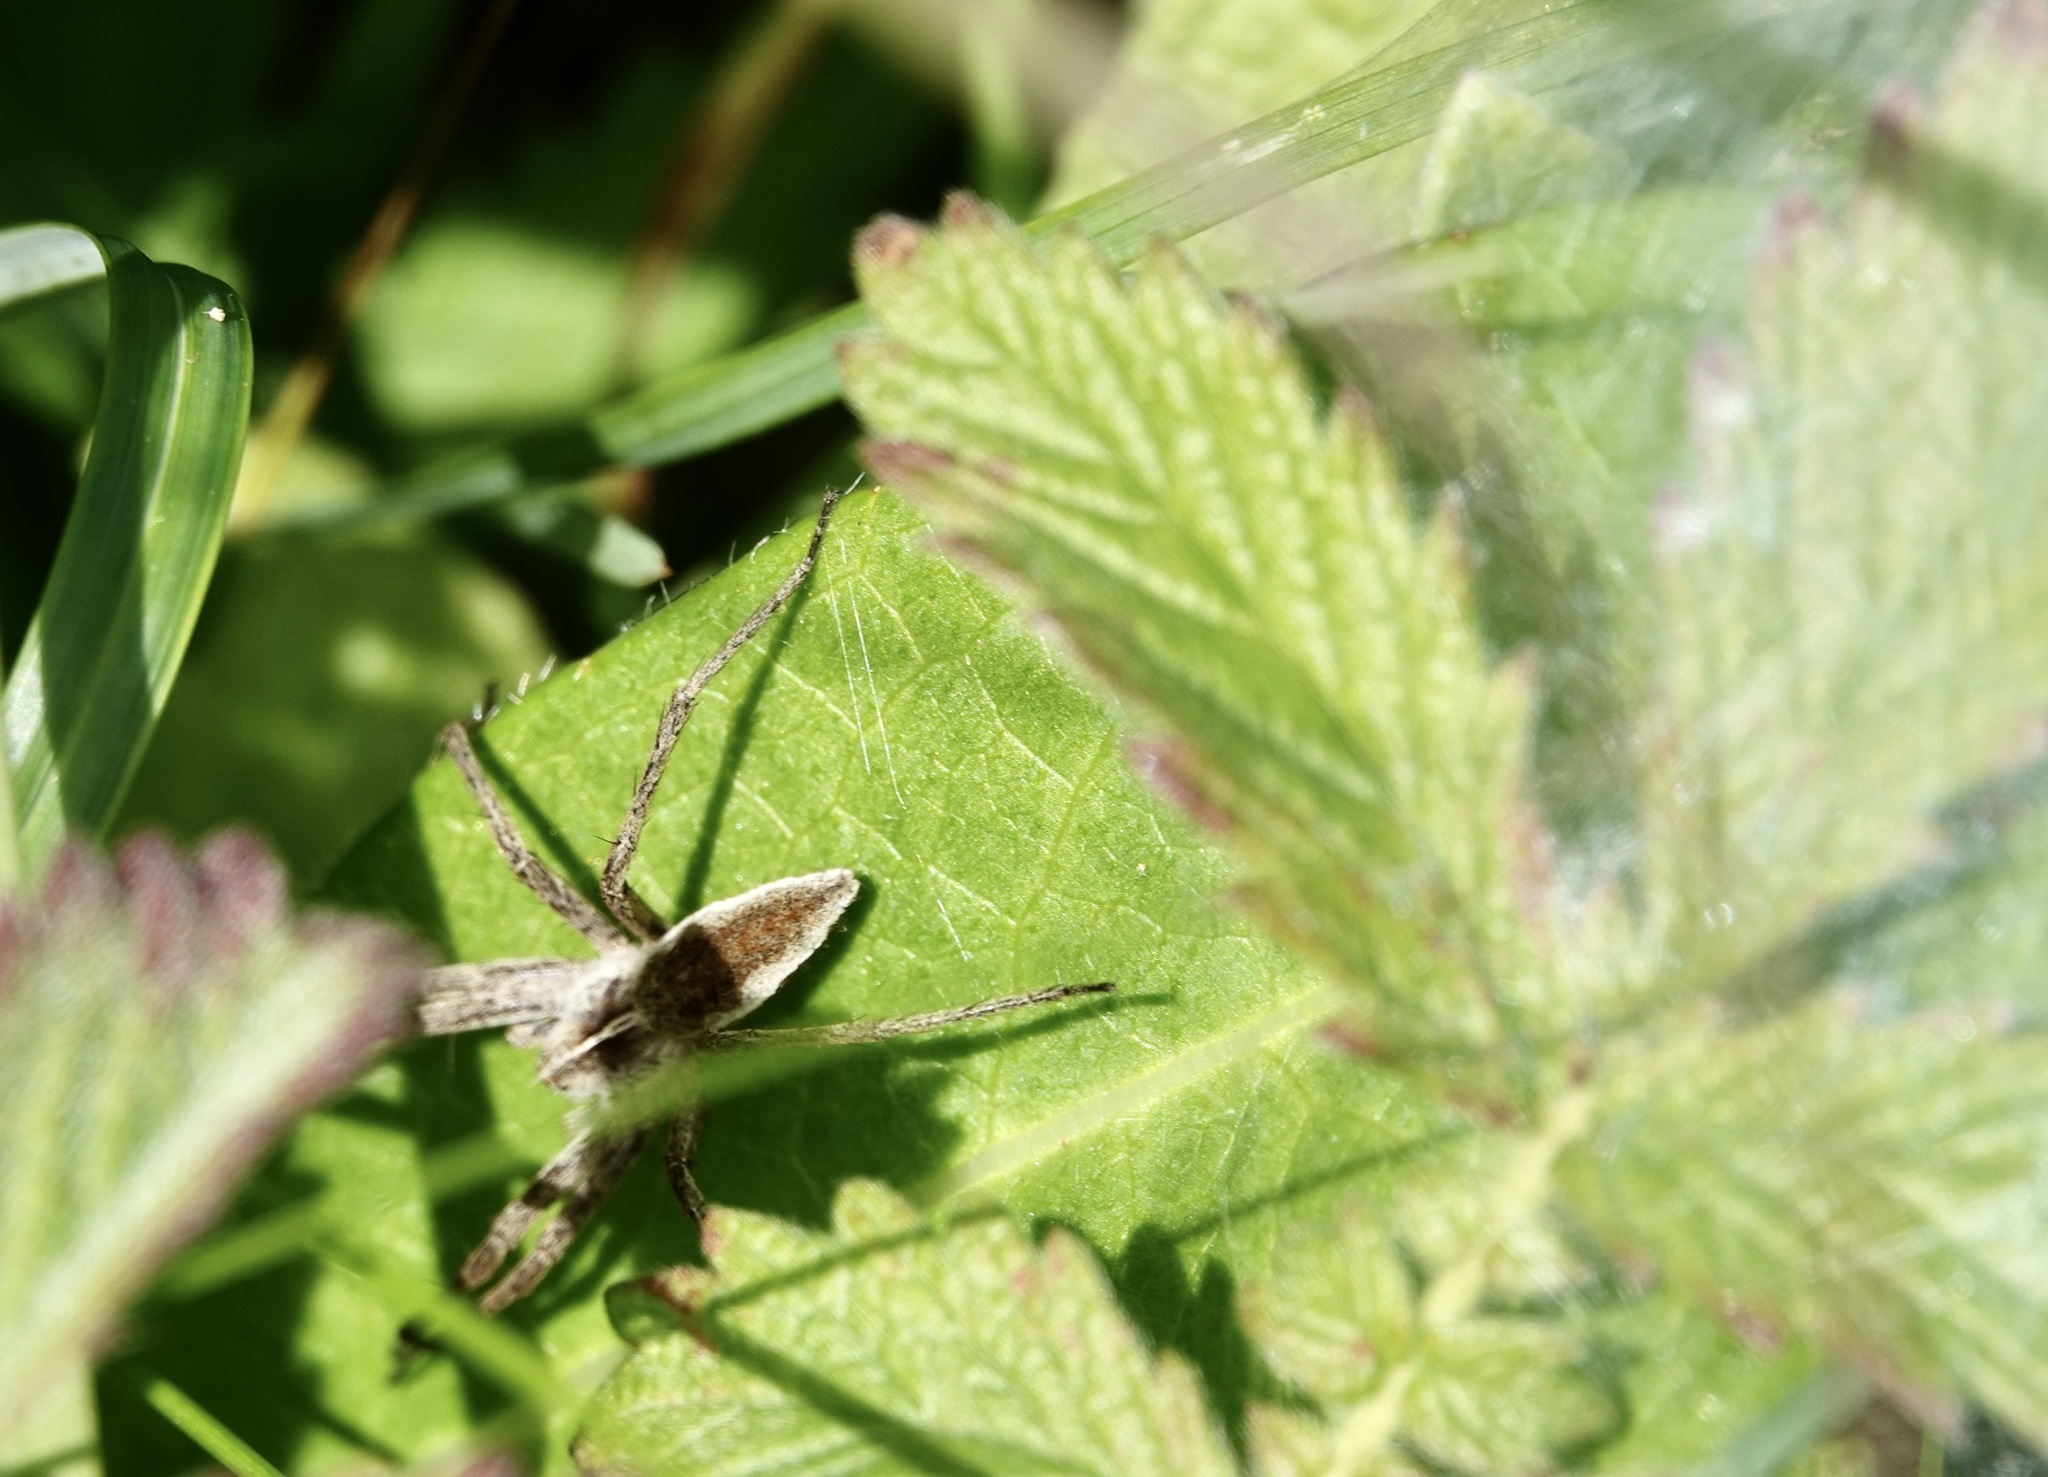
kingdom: Animalia
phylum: Arthropoda
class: Arachnida
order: Araneae
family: Pisauridae
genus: Pisaura
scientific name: Pisaura mirabilis
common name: Tent spider
